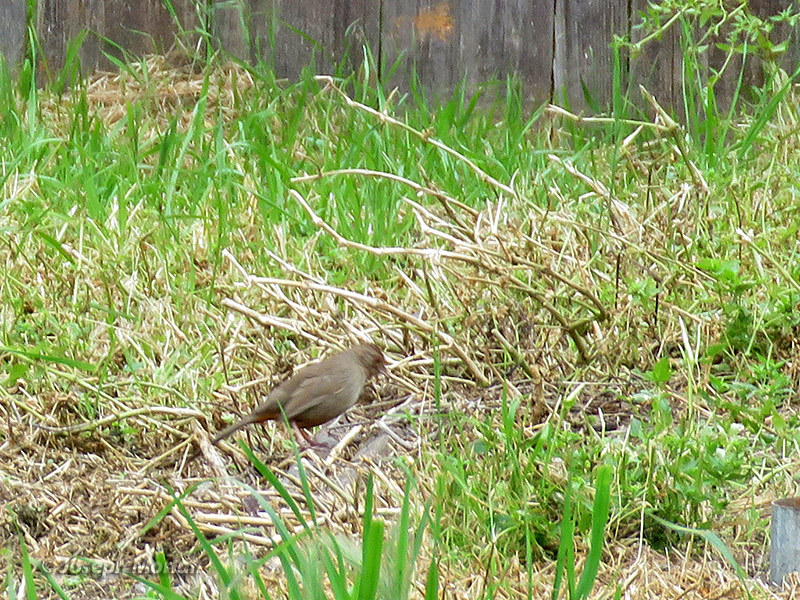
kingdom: Animalia
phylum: Chordata
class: Aves
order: Passeriformes
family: Passerellidae
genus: Melozone
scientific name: Melozone crissalis
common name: California towhee
